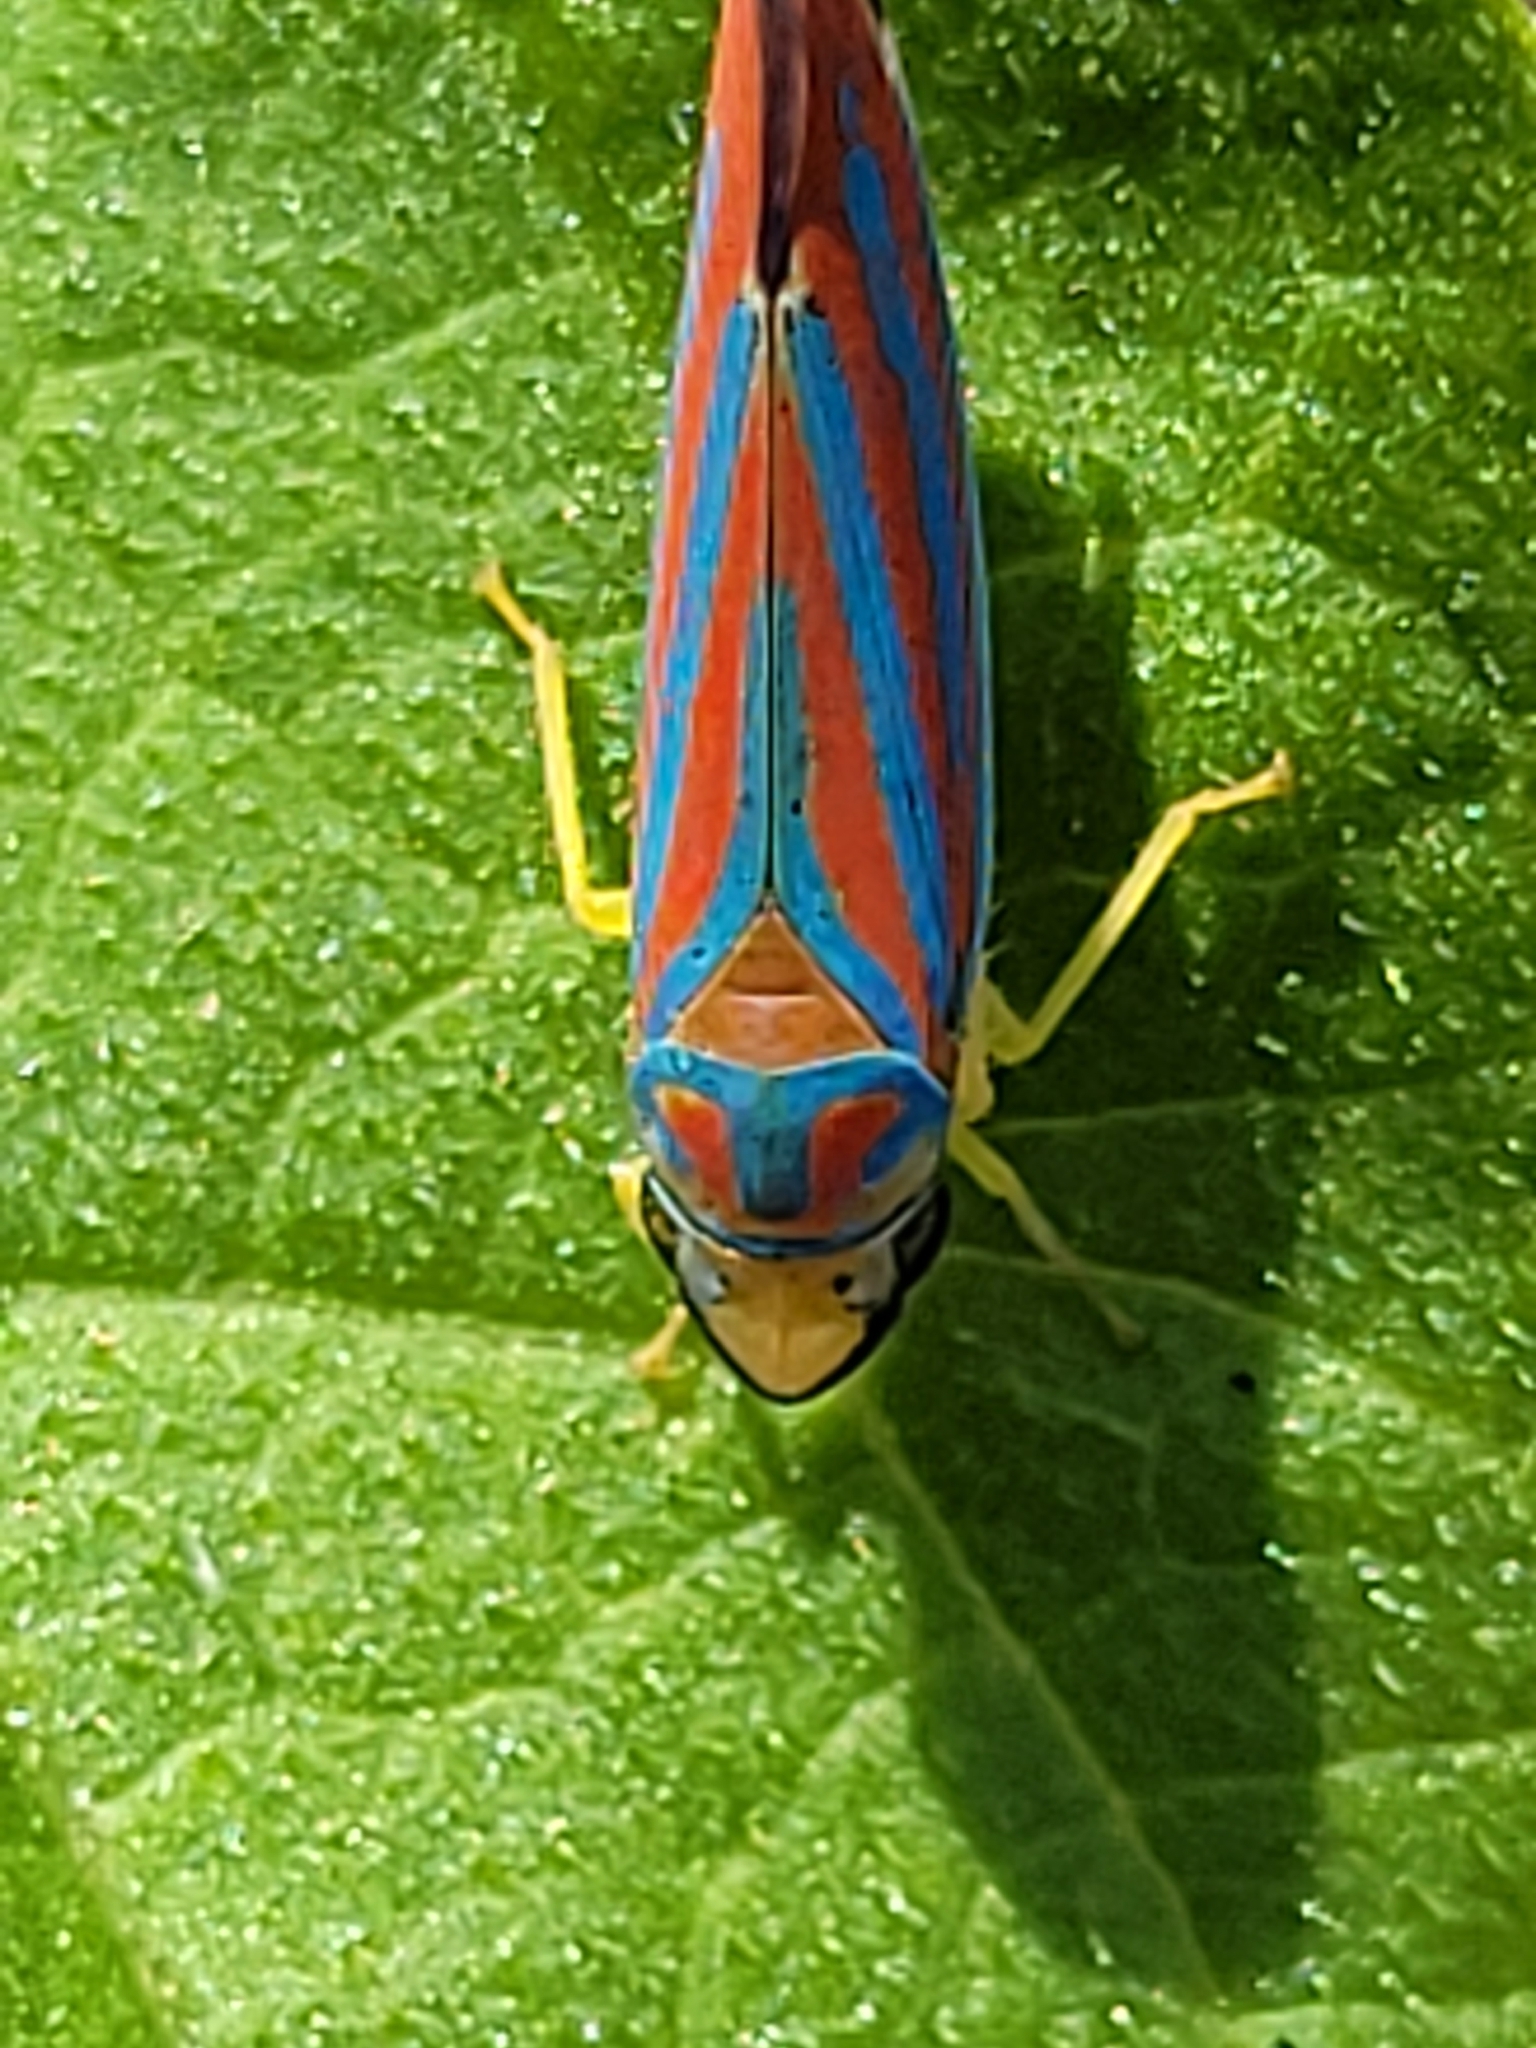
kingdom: Animalia
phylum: Arthropoda
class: Insecta
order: Hemiptera
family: Cicadellidae
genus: Graphocephala
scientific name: Graphocephala coccinea
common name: Candy-striped leafhopper
